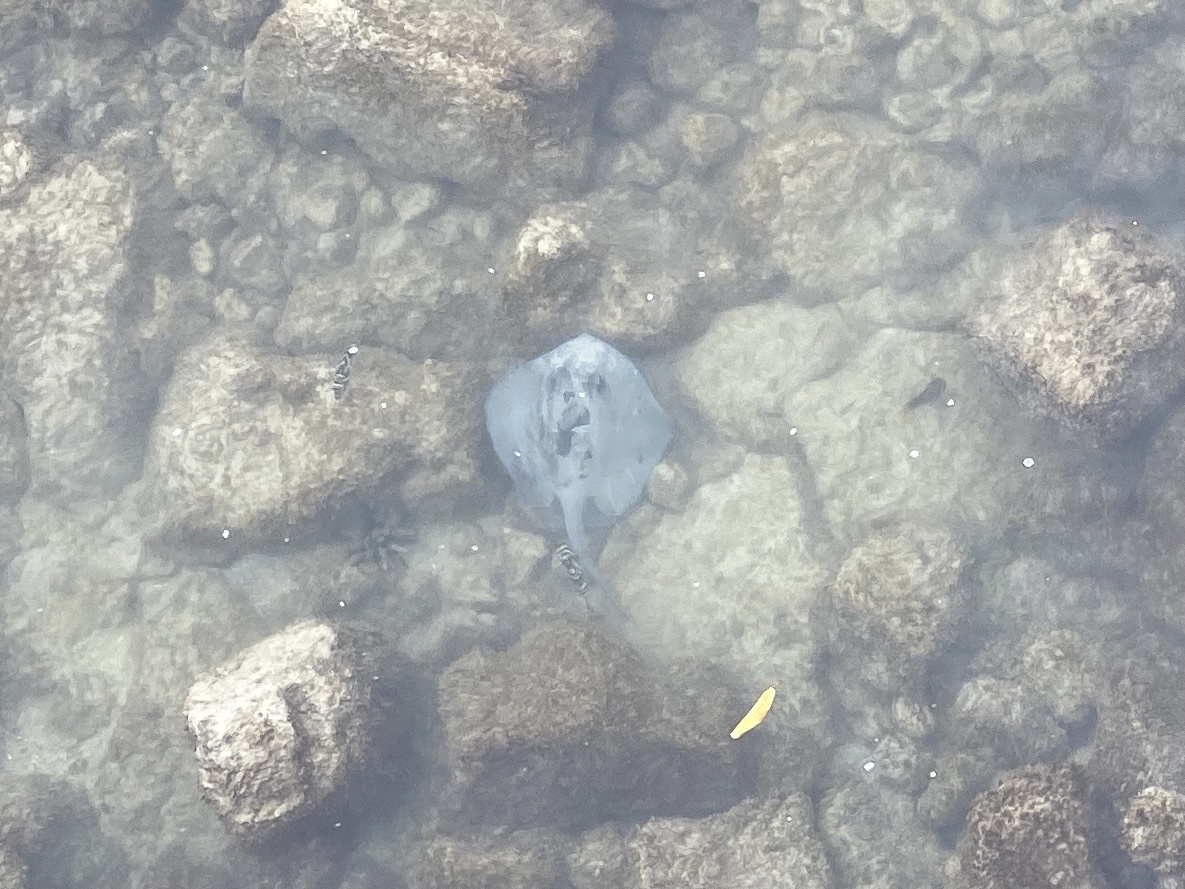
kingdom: Animalia
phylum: Chordata
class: Elasmobranchii
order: Myliobatiformes
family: Dasyatidae
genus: Hypanus
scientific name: Hypanus dipterurus
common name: Diamond stingray
